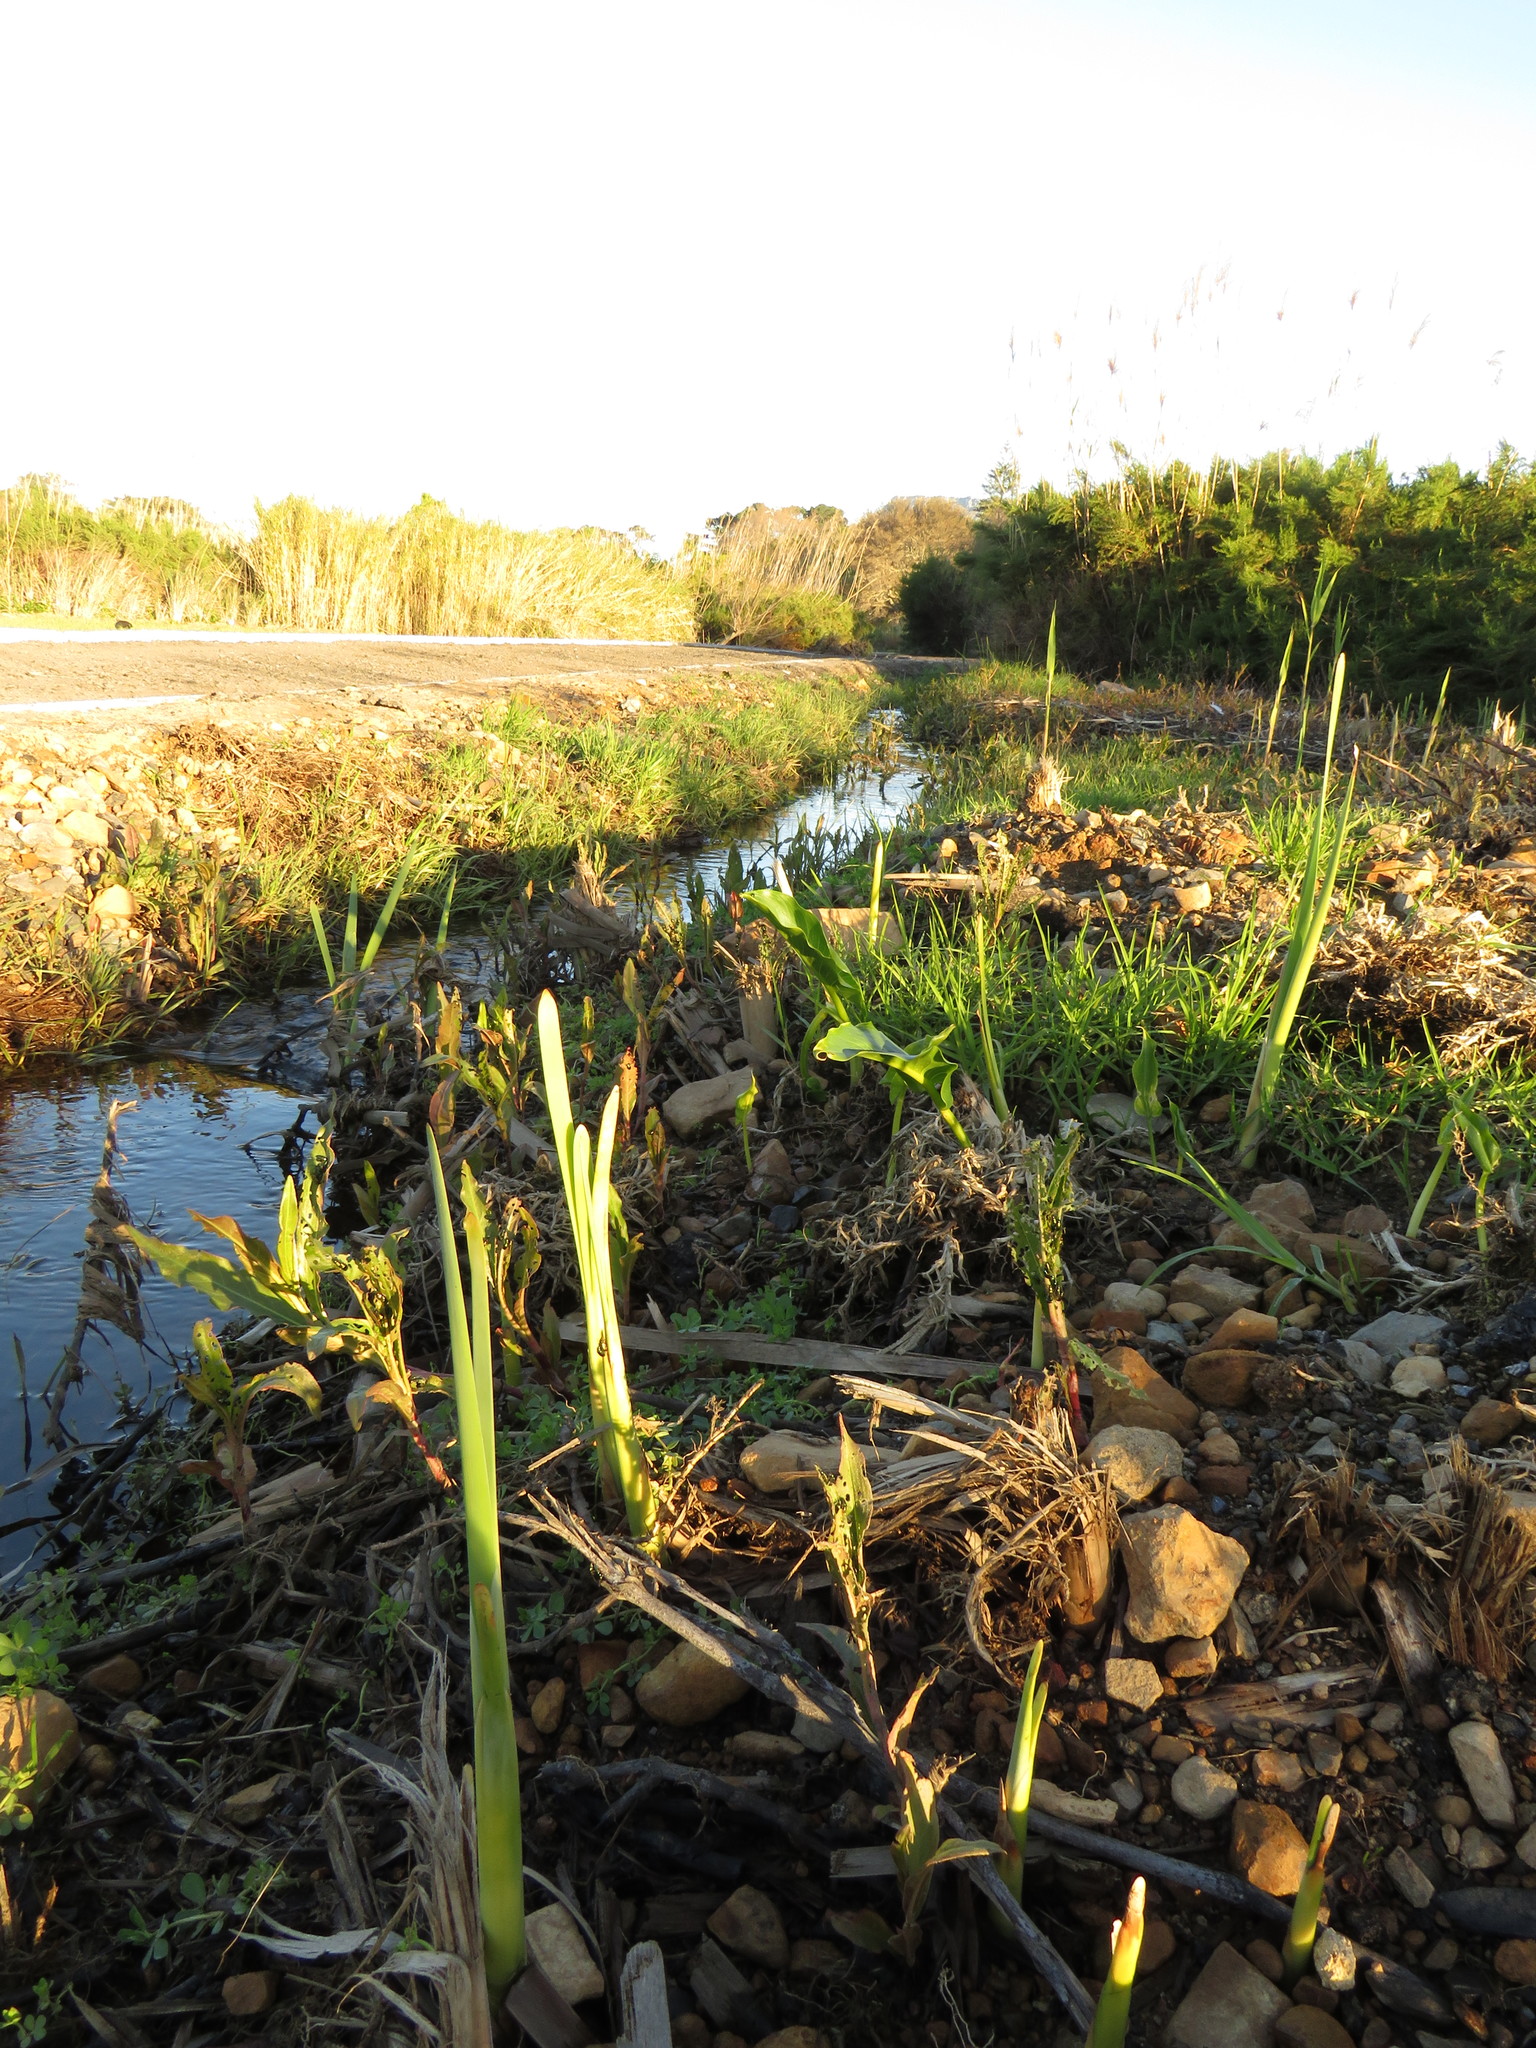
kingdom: Plantae
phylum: Tracheophyta
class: Magnoliopsida
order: Caryophyllales
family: Polygonaceae
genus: Persicaria
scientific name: Persicaria madagascariensis
